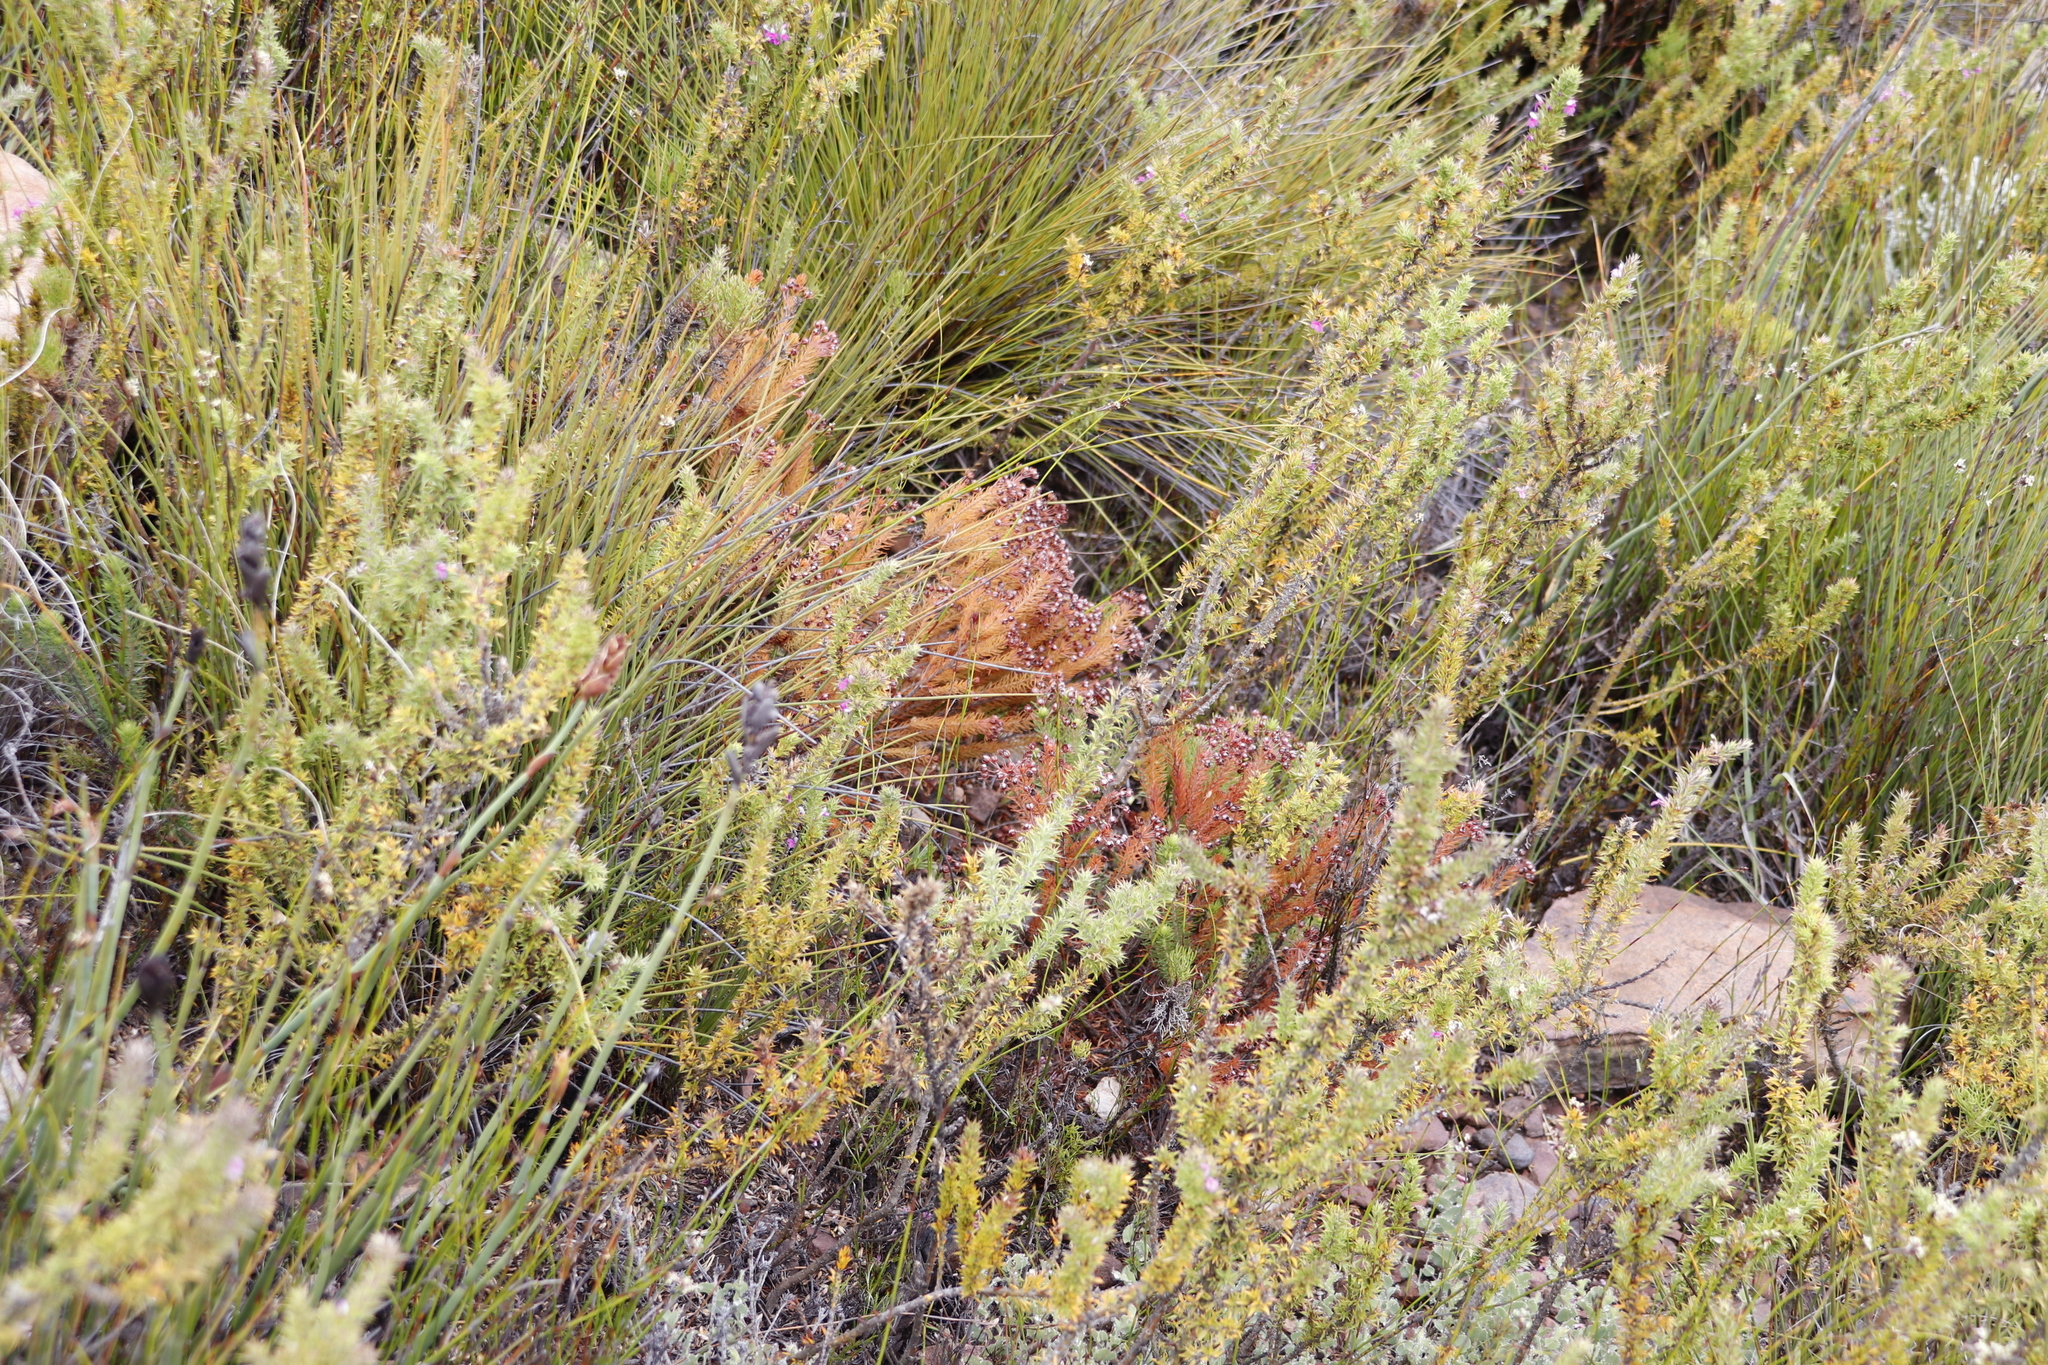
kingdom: Plantae
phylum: Tracheophyta
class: Magnoliopsida
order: Fabales
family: Polygalaceae
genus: Muraltia
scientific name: Muraltia heisteria
